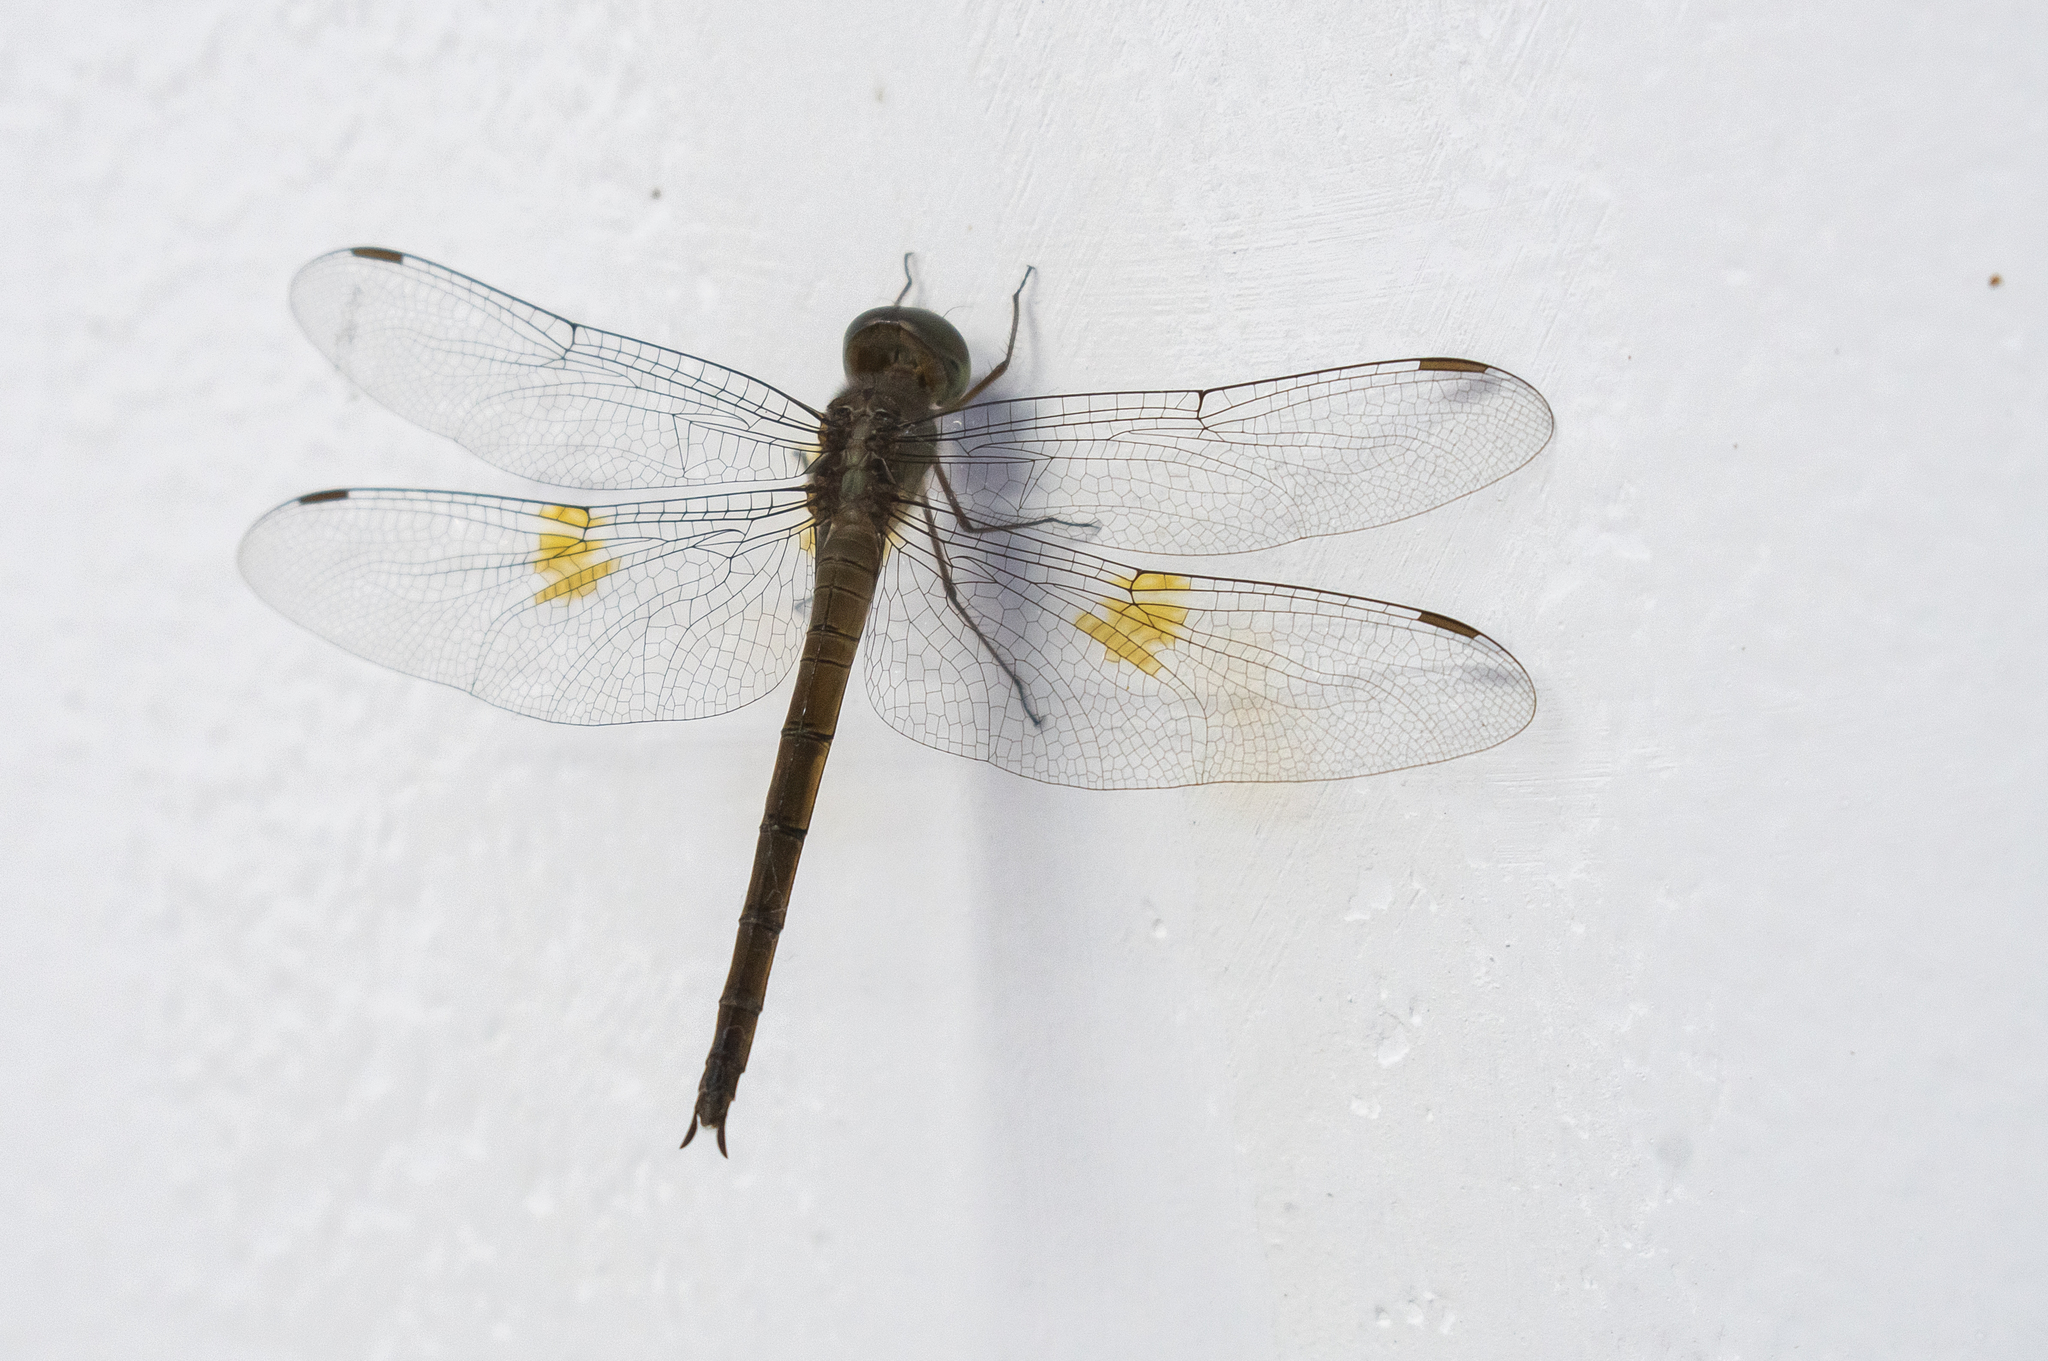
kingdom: Animalia
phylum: Arthropoda
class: Insecta
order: Odonata
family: Libellulidae
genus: Tholymis
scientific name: Tholymis citrina
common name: Evening skimmer
